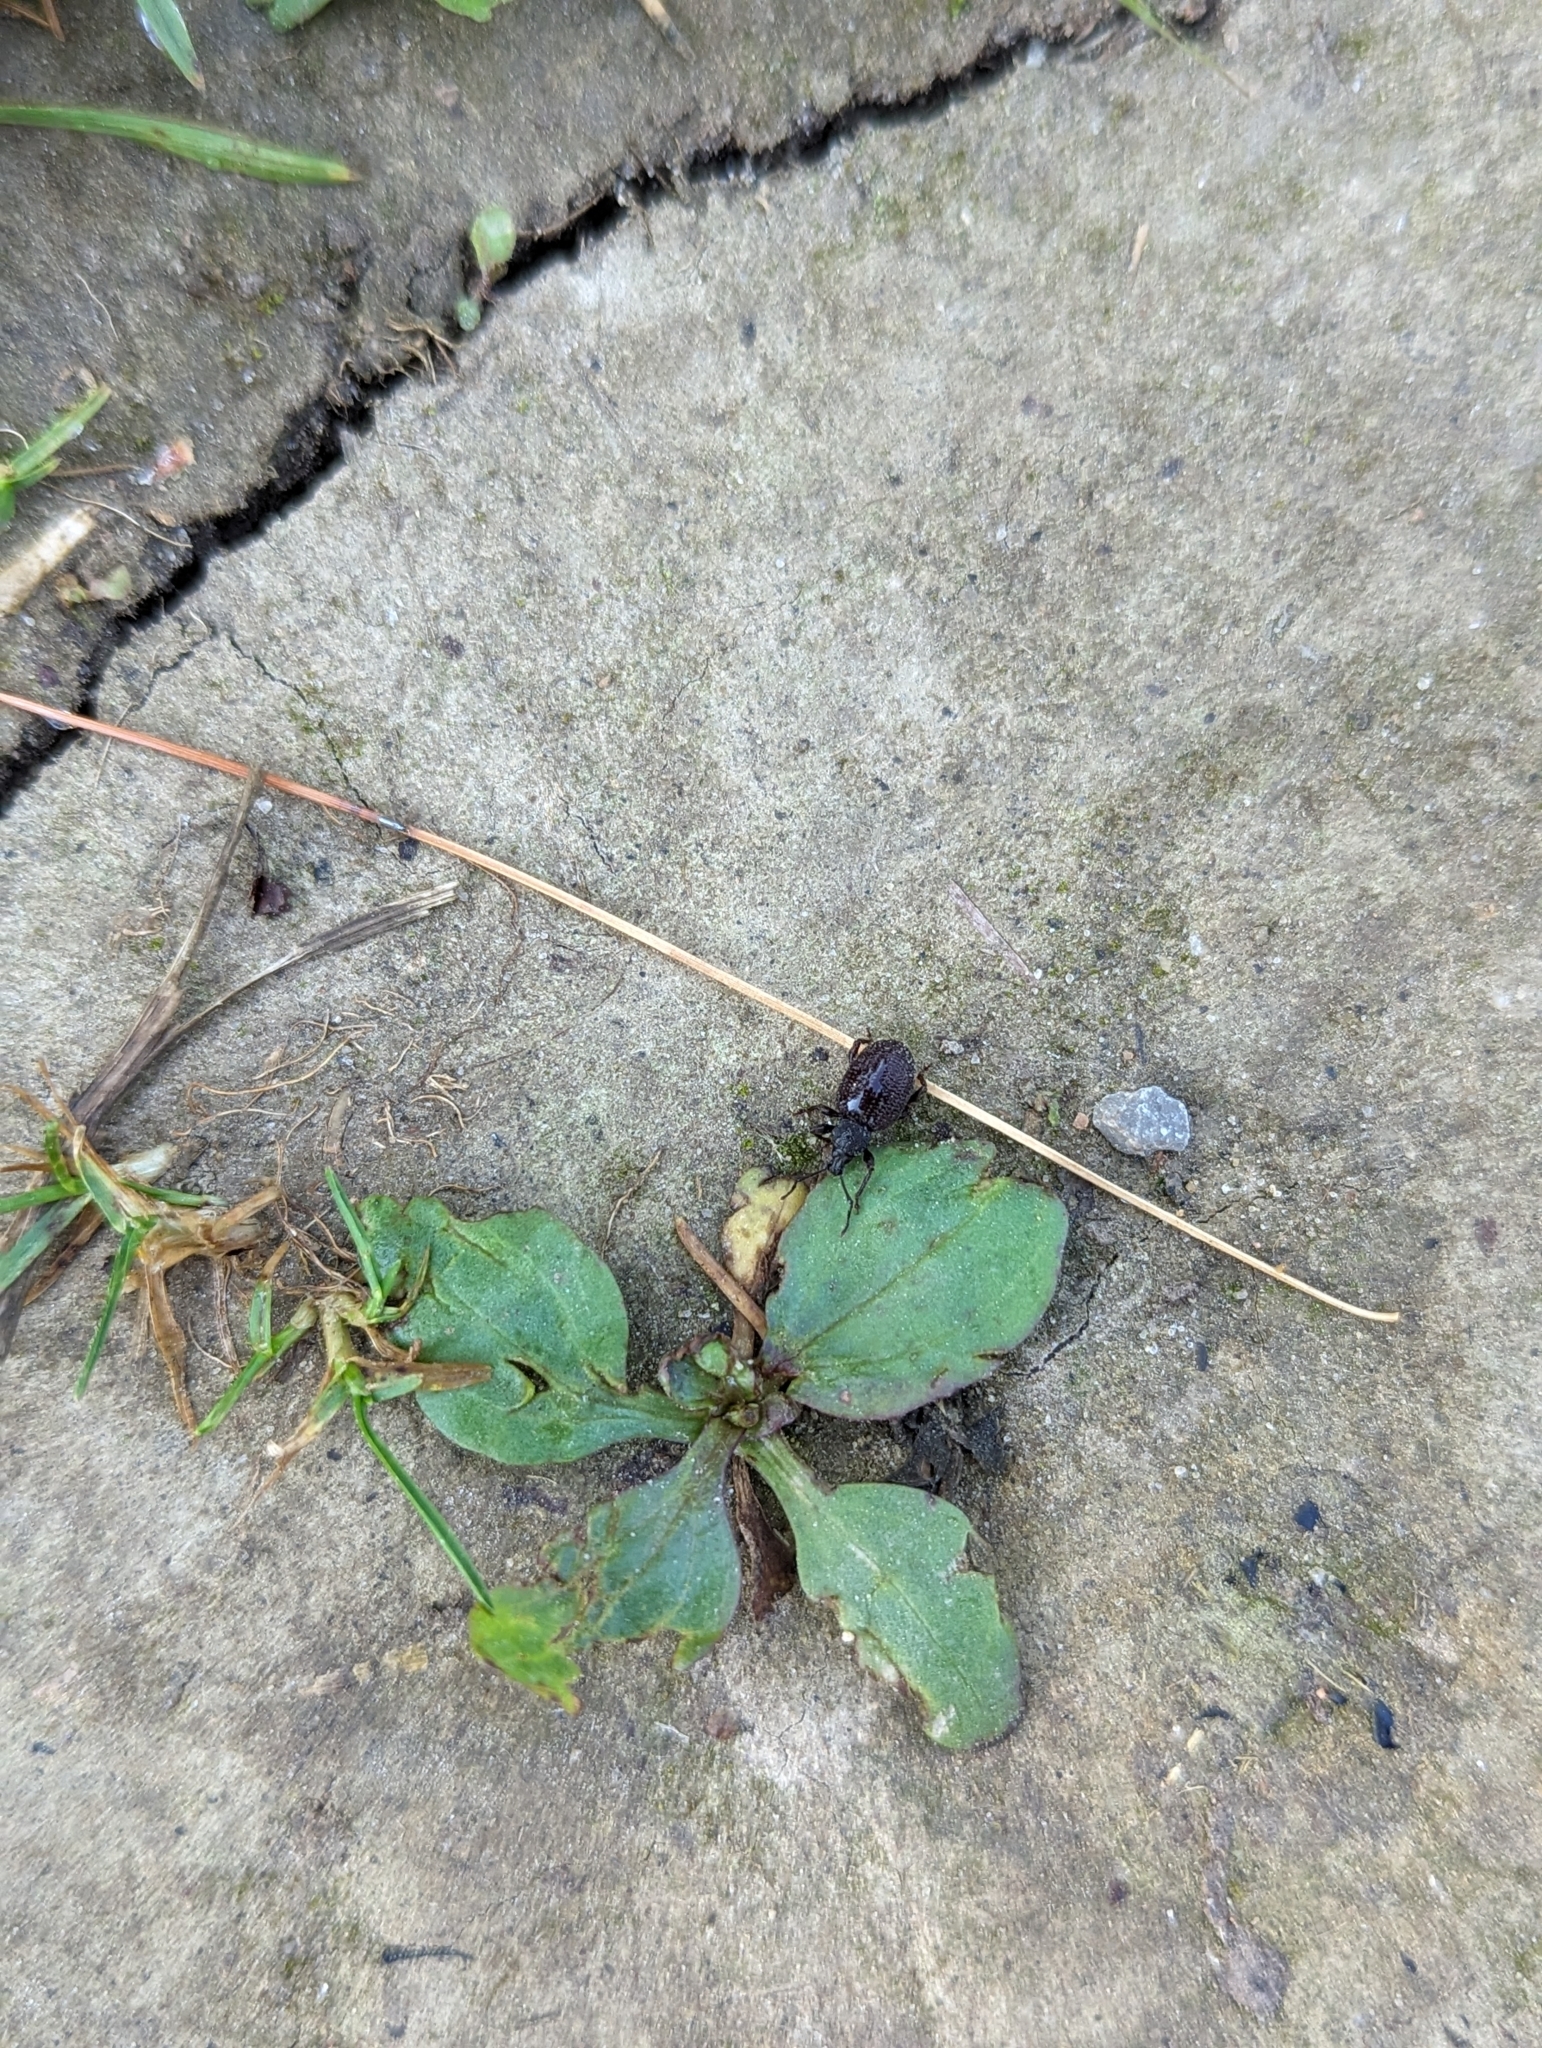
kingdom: Animalia
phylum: Arthropoda
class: Insecta
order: Coleoptera
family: Curculionidae
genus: Otiorhynchus
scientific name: Otiorhynchus rugosostriatus
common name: Weevil
